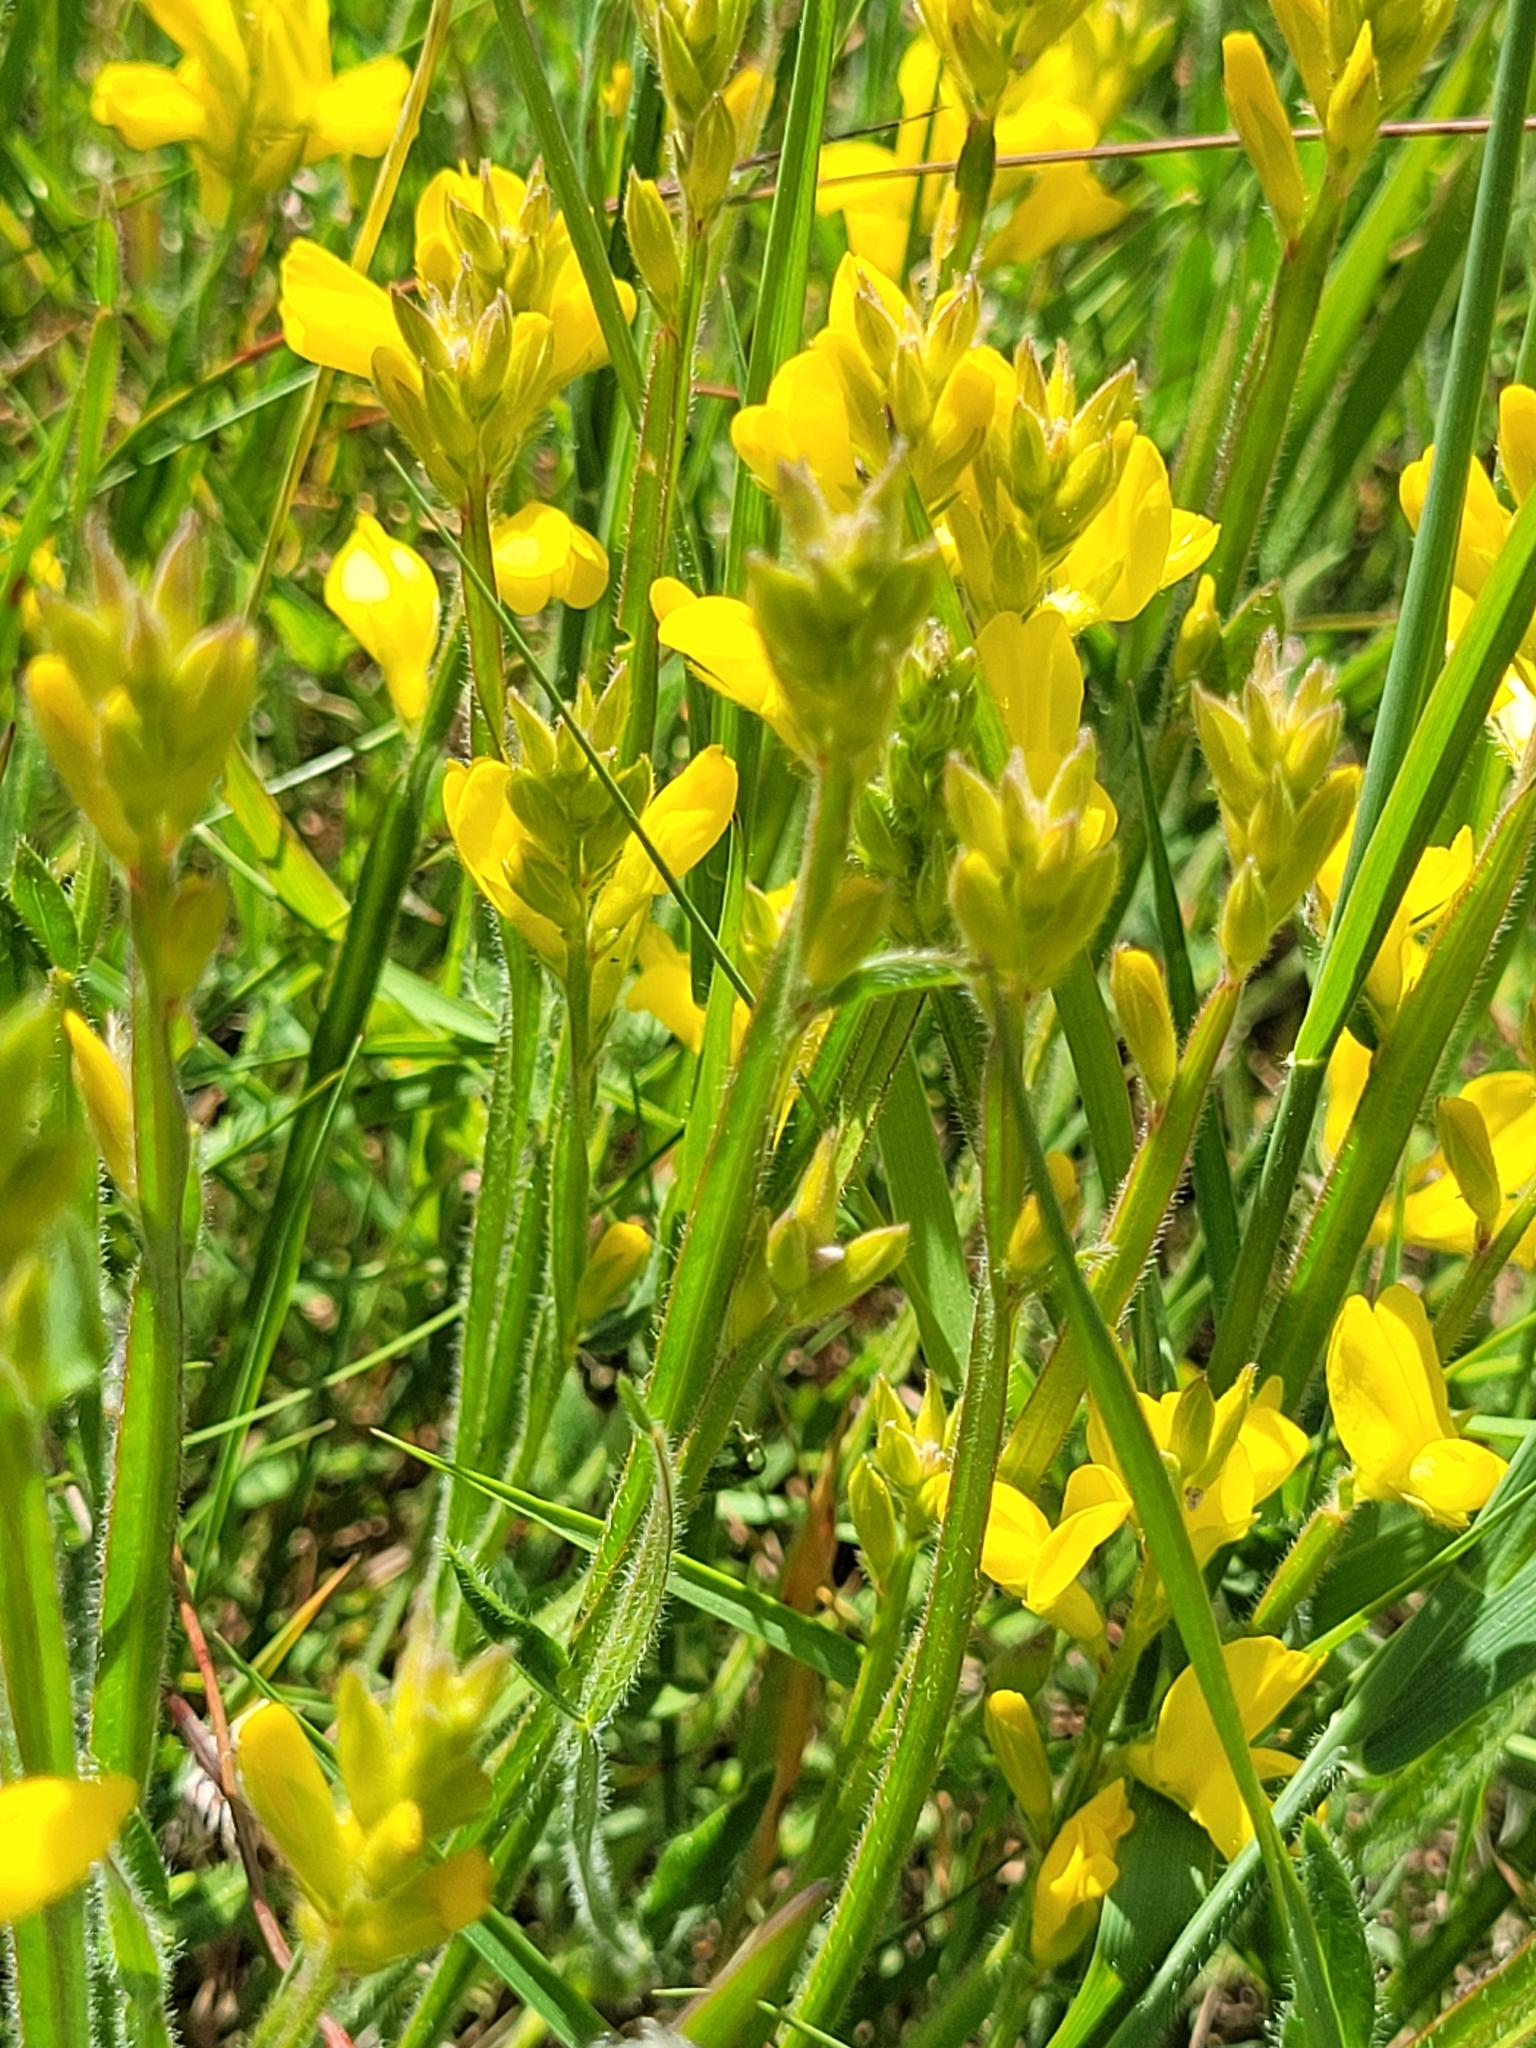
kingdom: Plantae
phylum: Tracheophyta
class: Magnoliopsida
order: Fabales
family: Fabaceae
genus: Genista
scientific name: Genista sagittalis
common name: Winged greenweed
